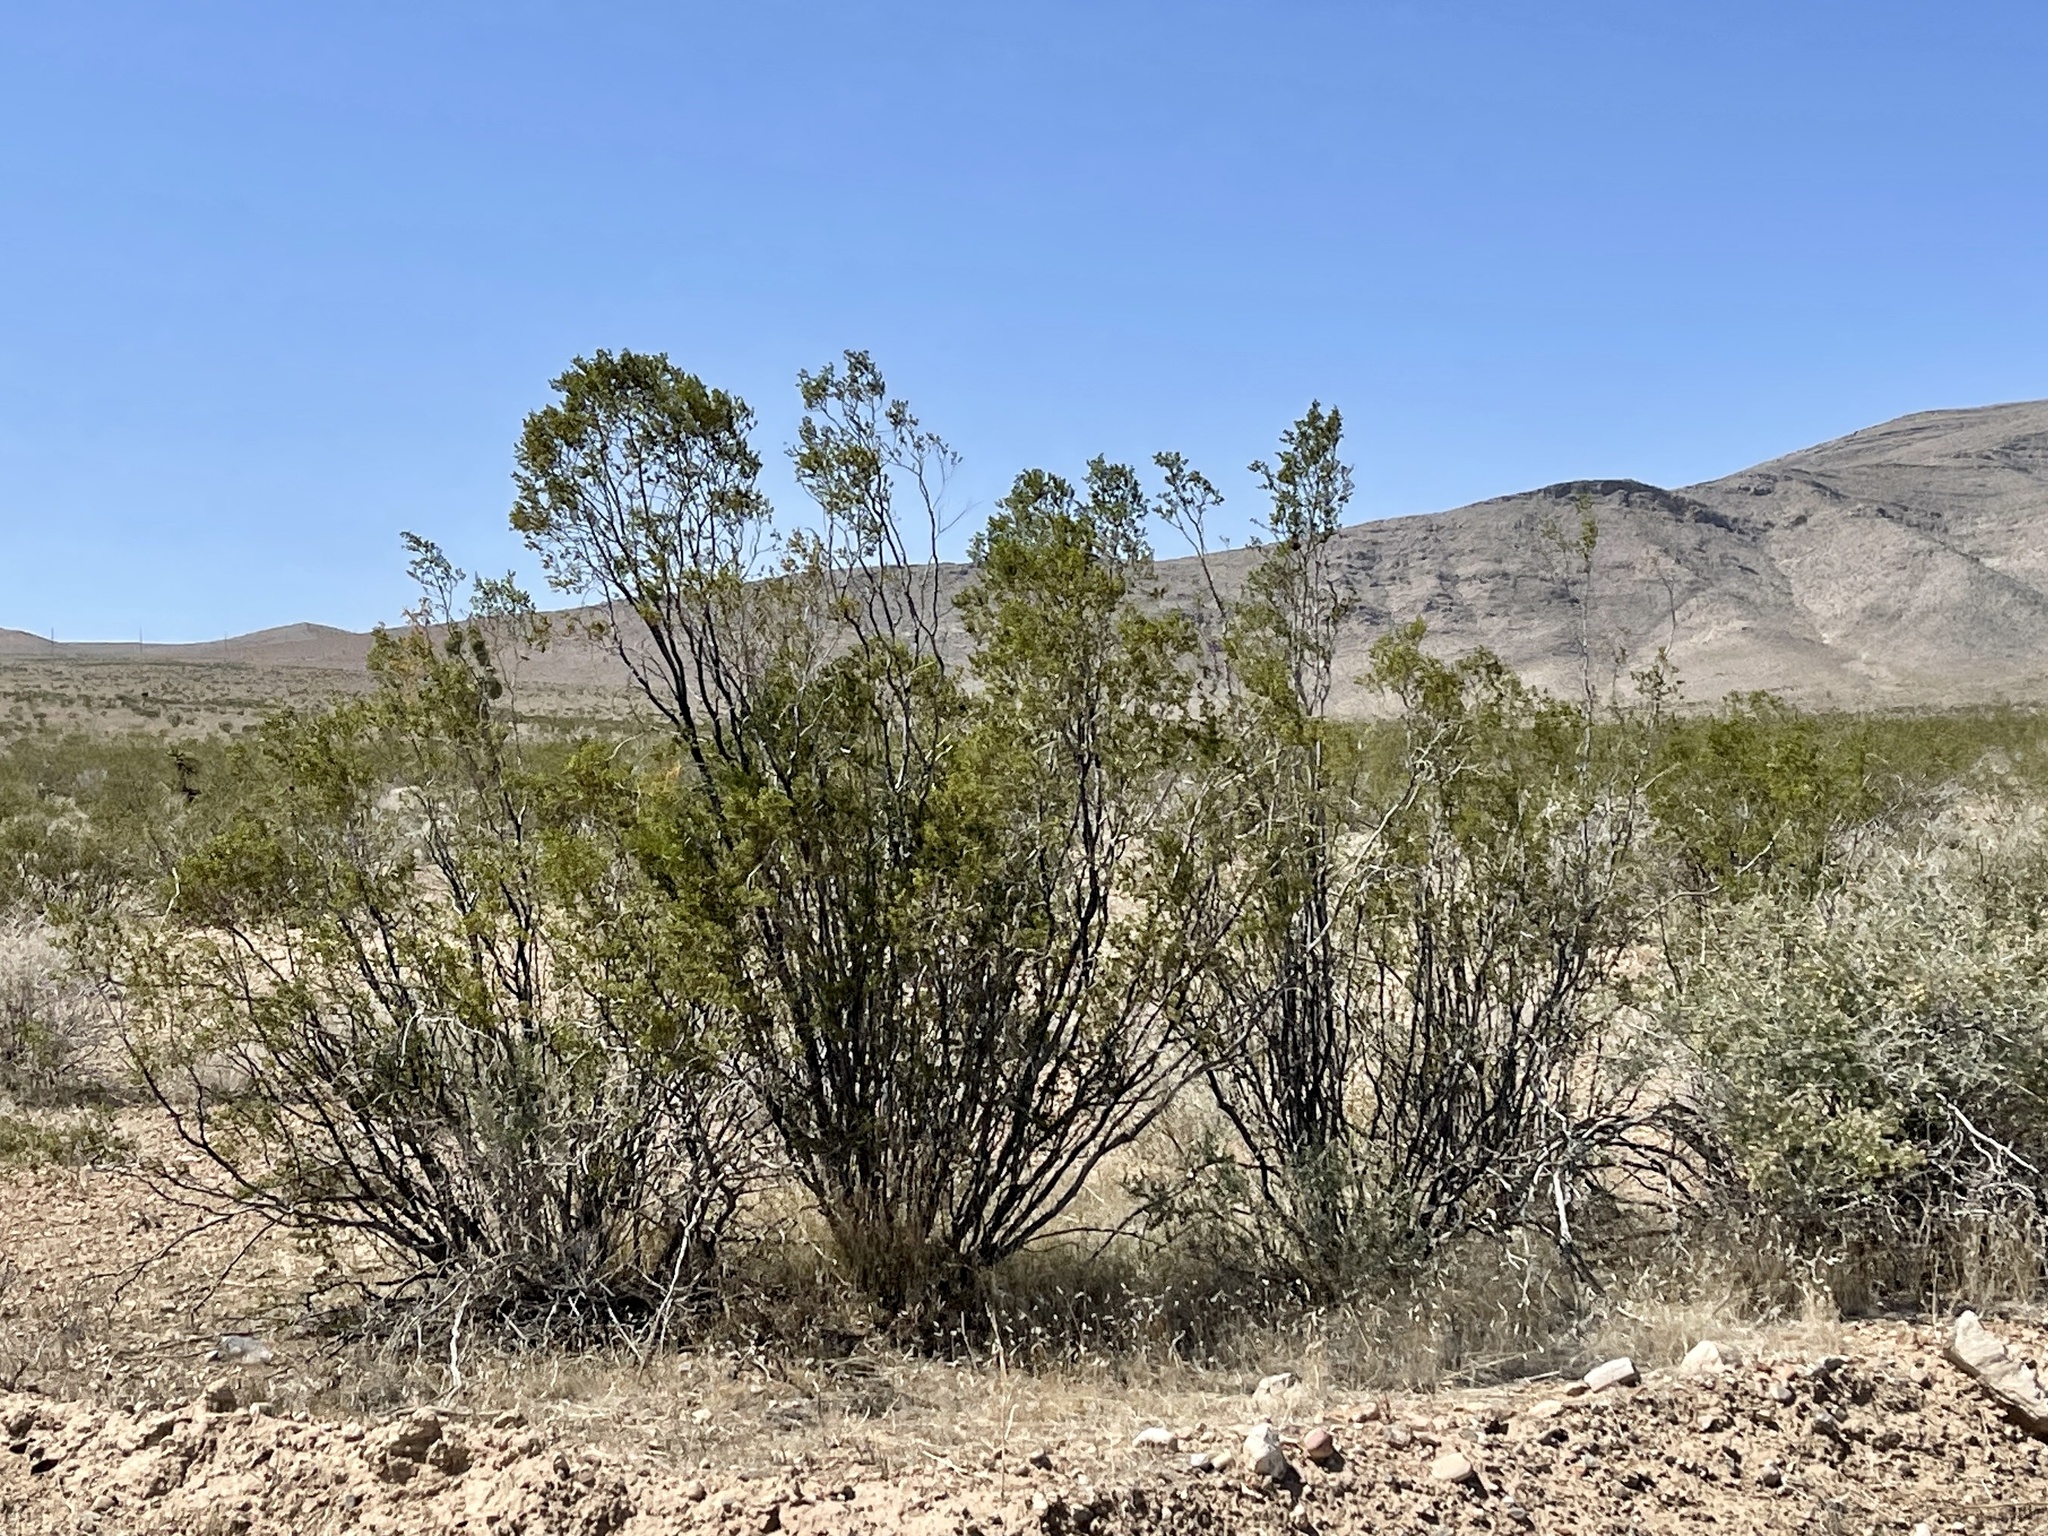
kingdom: Plantae
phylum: Tracheophyta
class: Magnoliopsida
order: Zygophyllales
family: Zygophyllaceae
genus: Larrea
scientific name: Larrea tridentata
